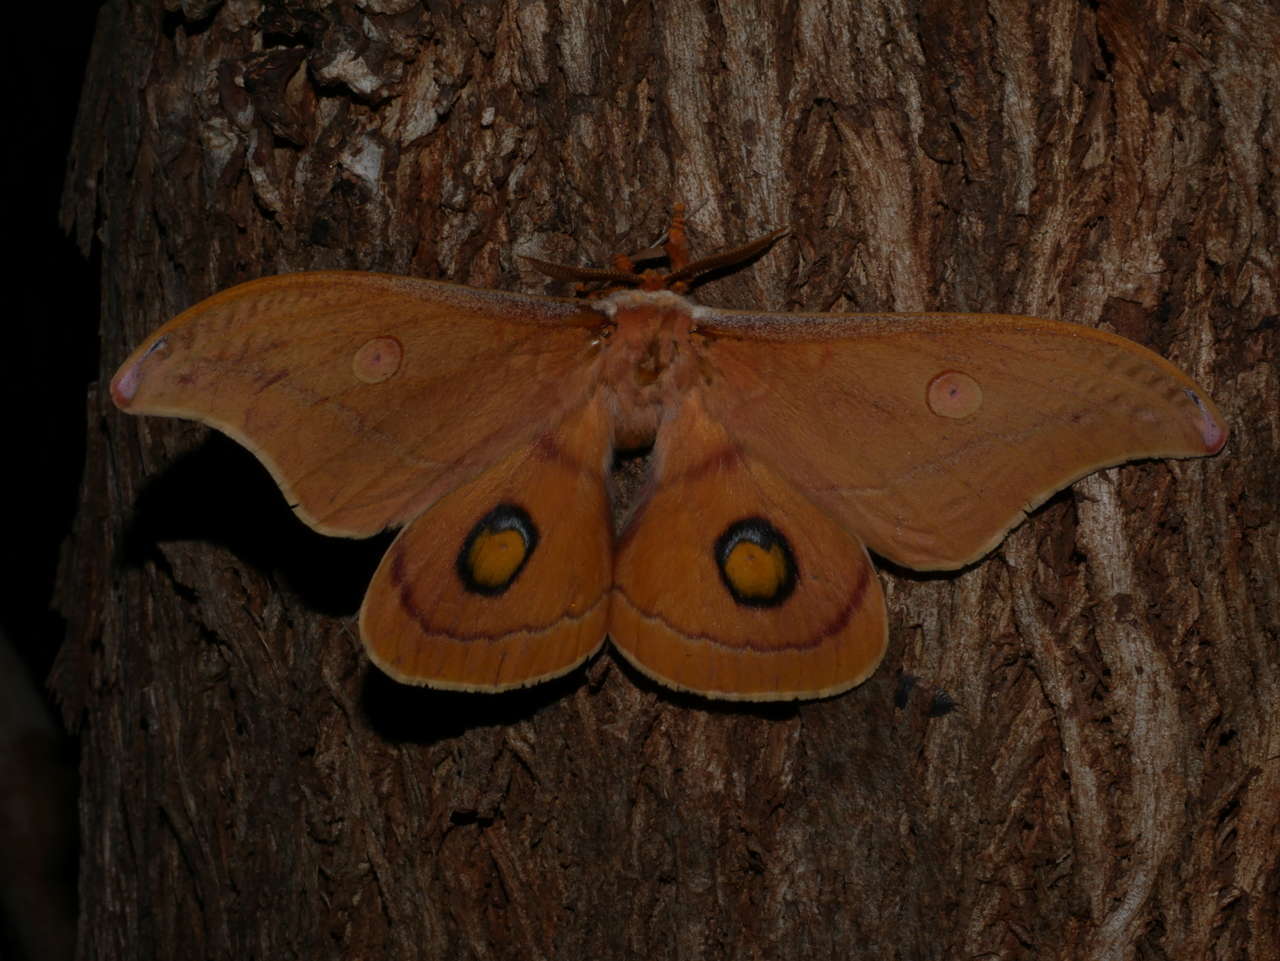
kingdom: Animalia
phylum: Arthropoda
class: Insecta
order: Lepidoptera
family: Saturniidae
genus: Opodiphthera
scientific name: Opodiphthera
